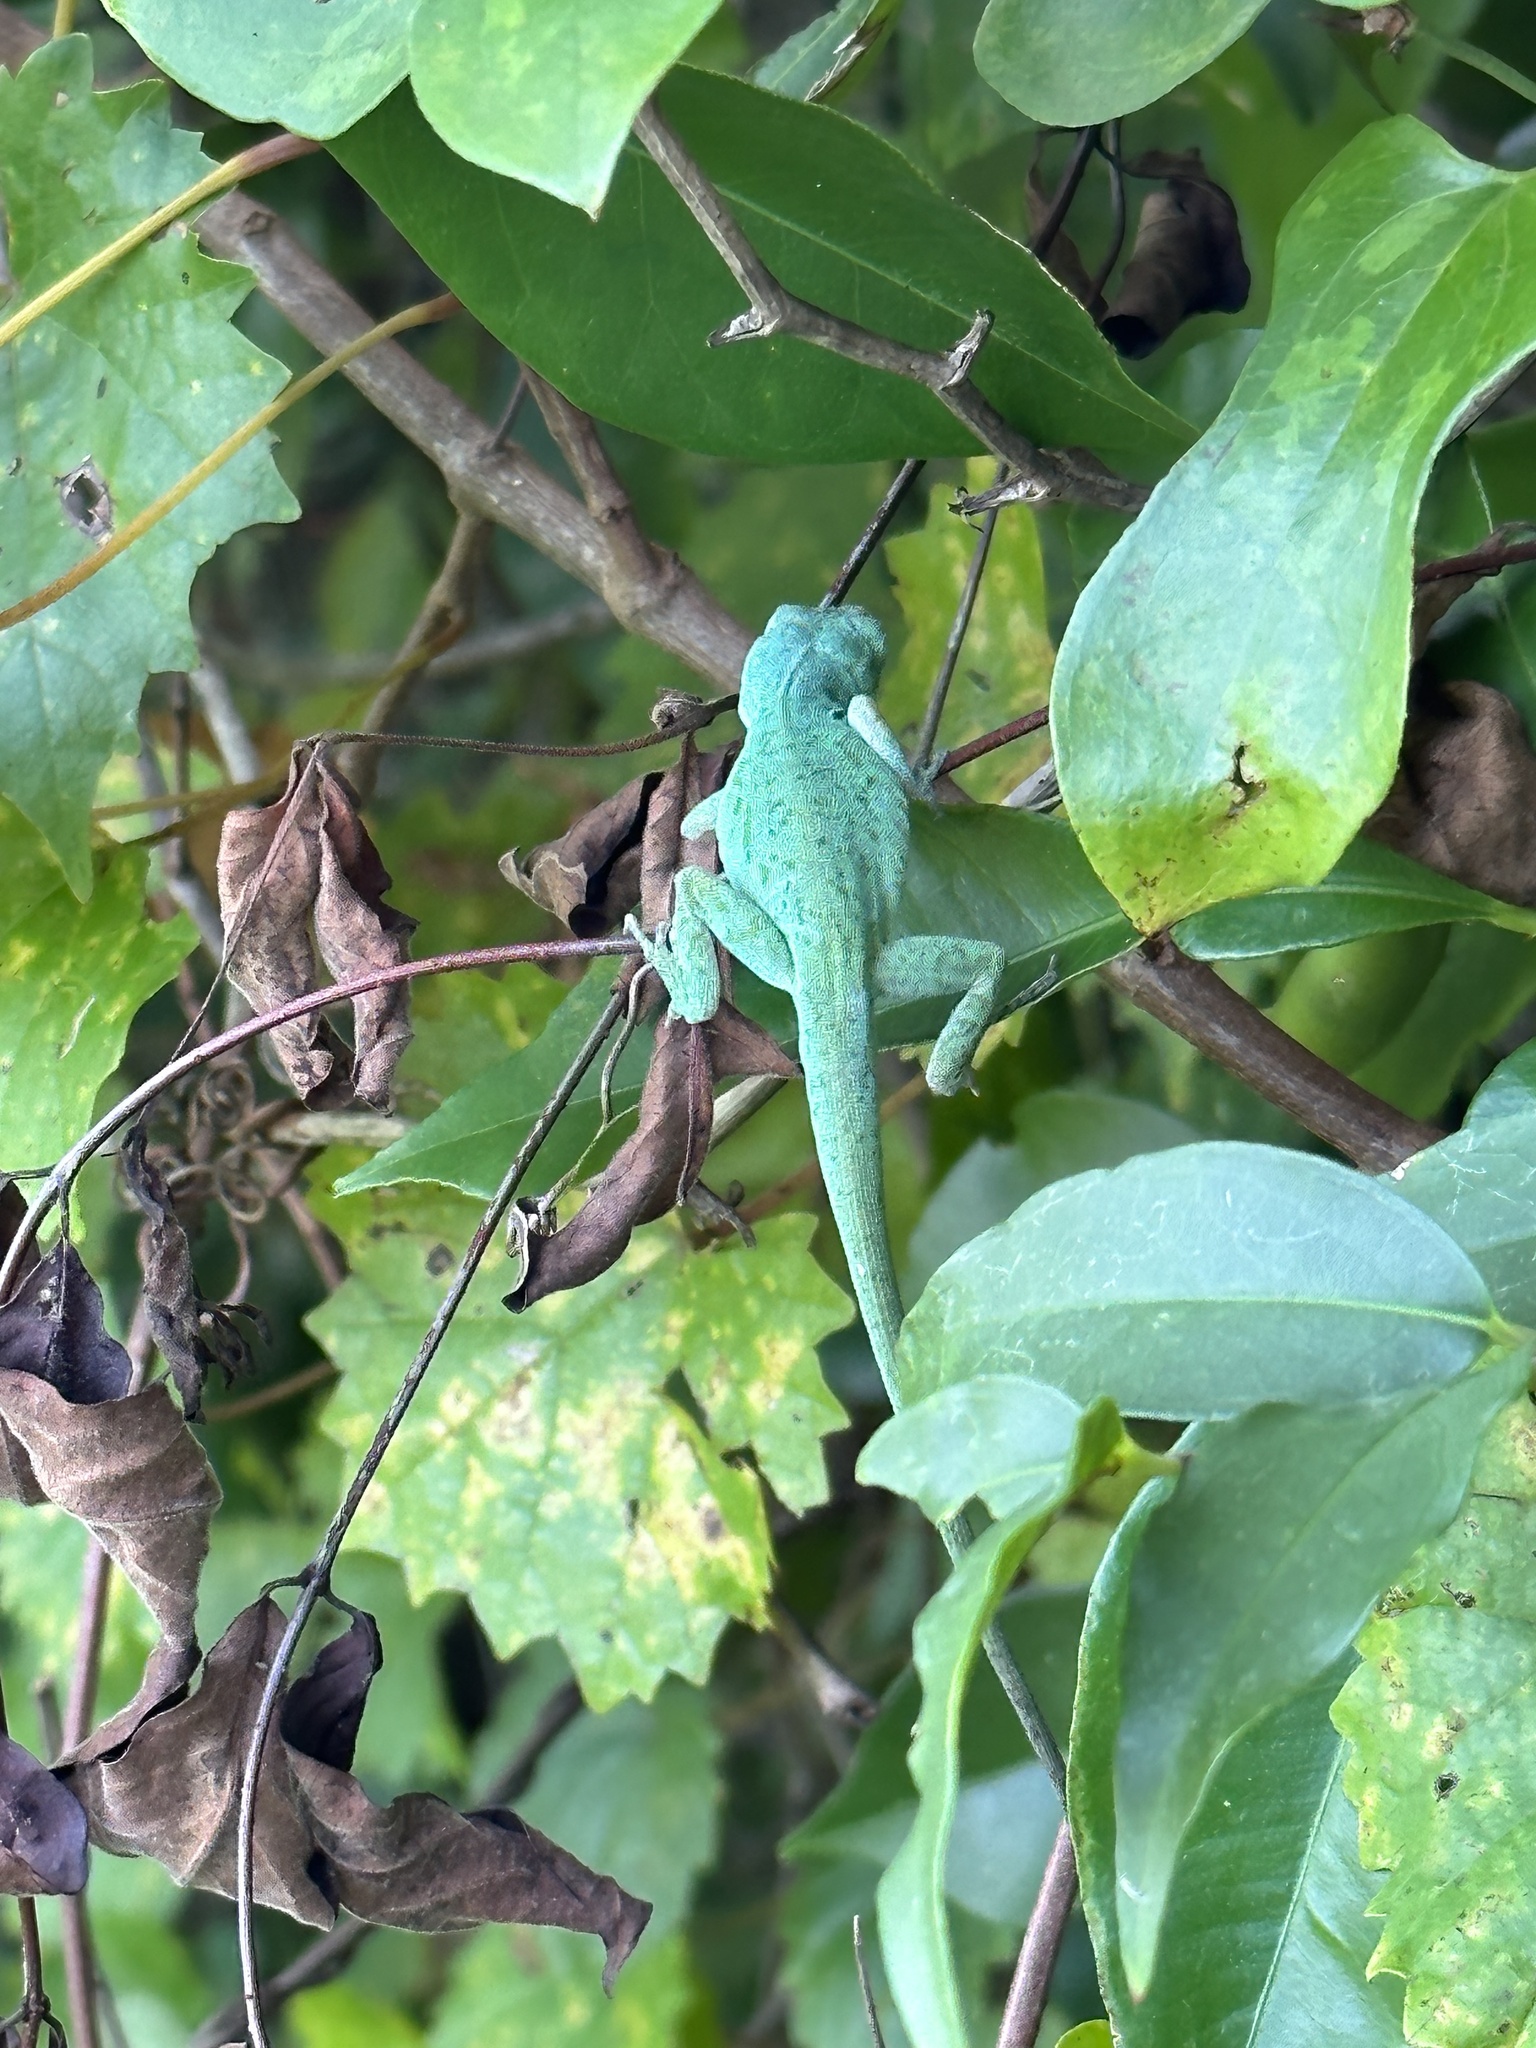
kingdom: Animalia
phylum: Chordata
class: Squamata
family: Dactyloidae
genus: Anolis
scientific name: Anolis carolinensis
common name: Green anole
